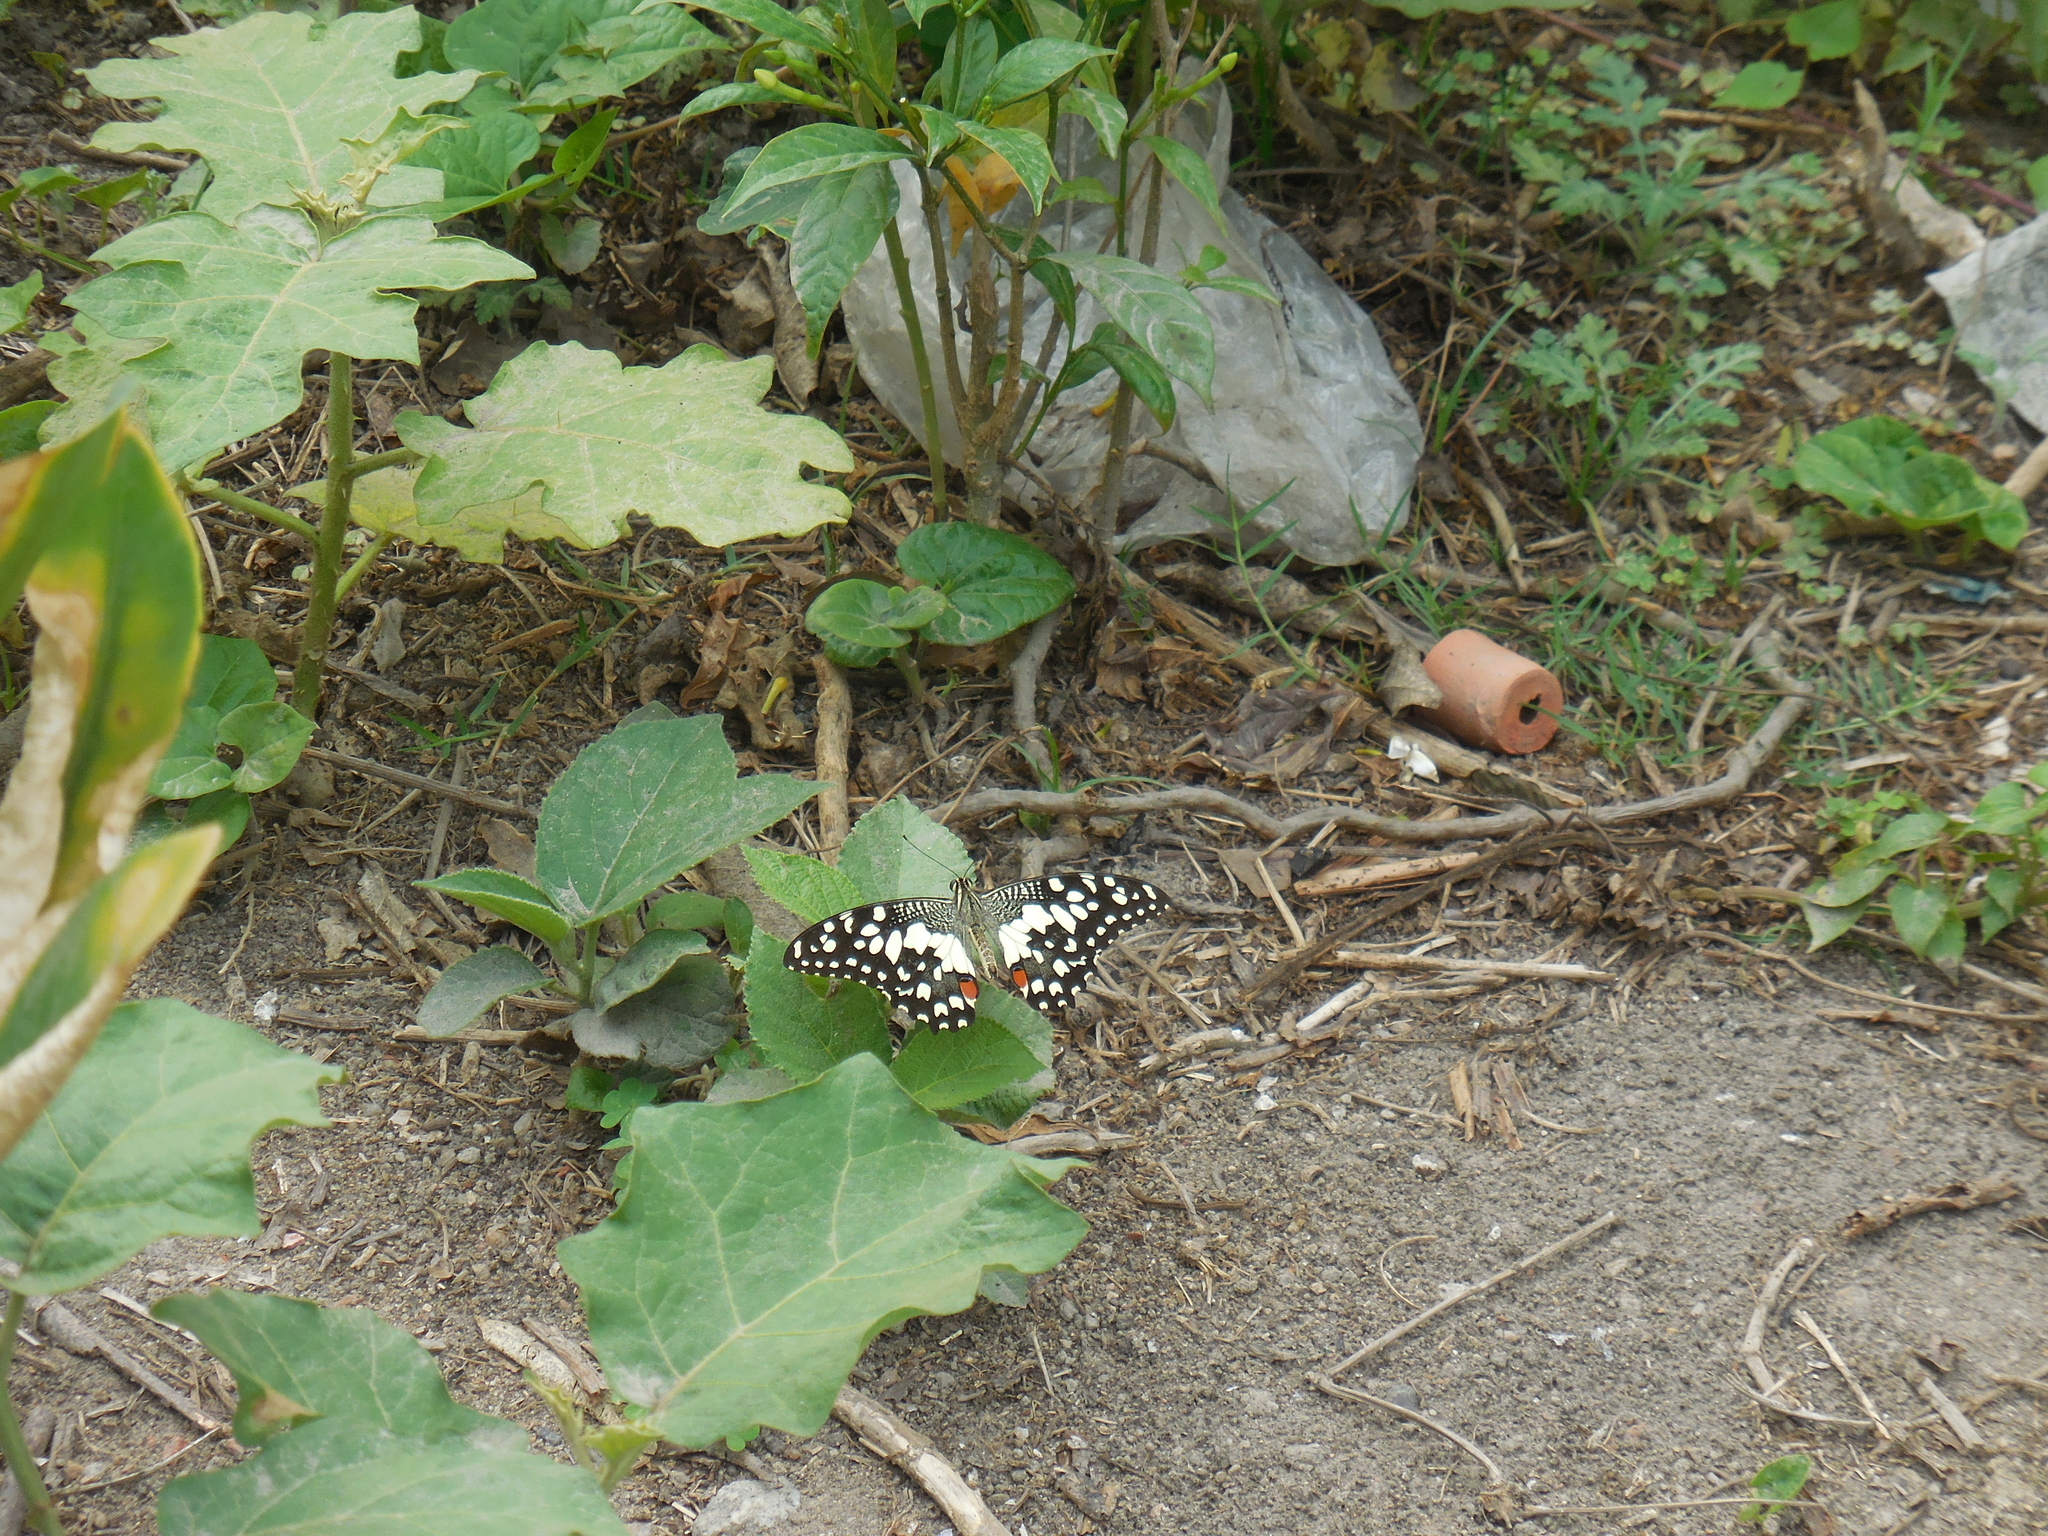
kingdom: Animalia
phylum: Arthropoda
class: Insecta
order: Lepidoptera
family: Papilionidae
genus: Papilio
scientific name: Papilio demoleus
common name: Lime butterfly
